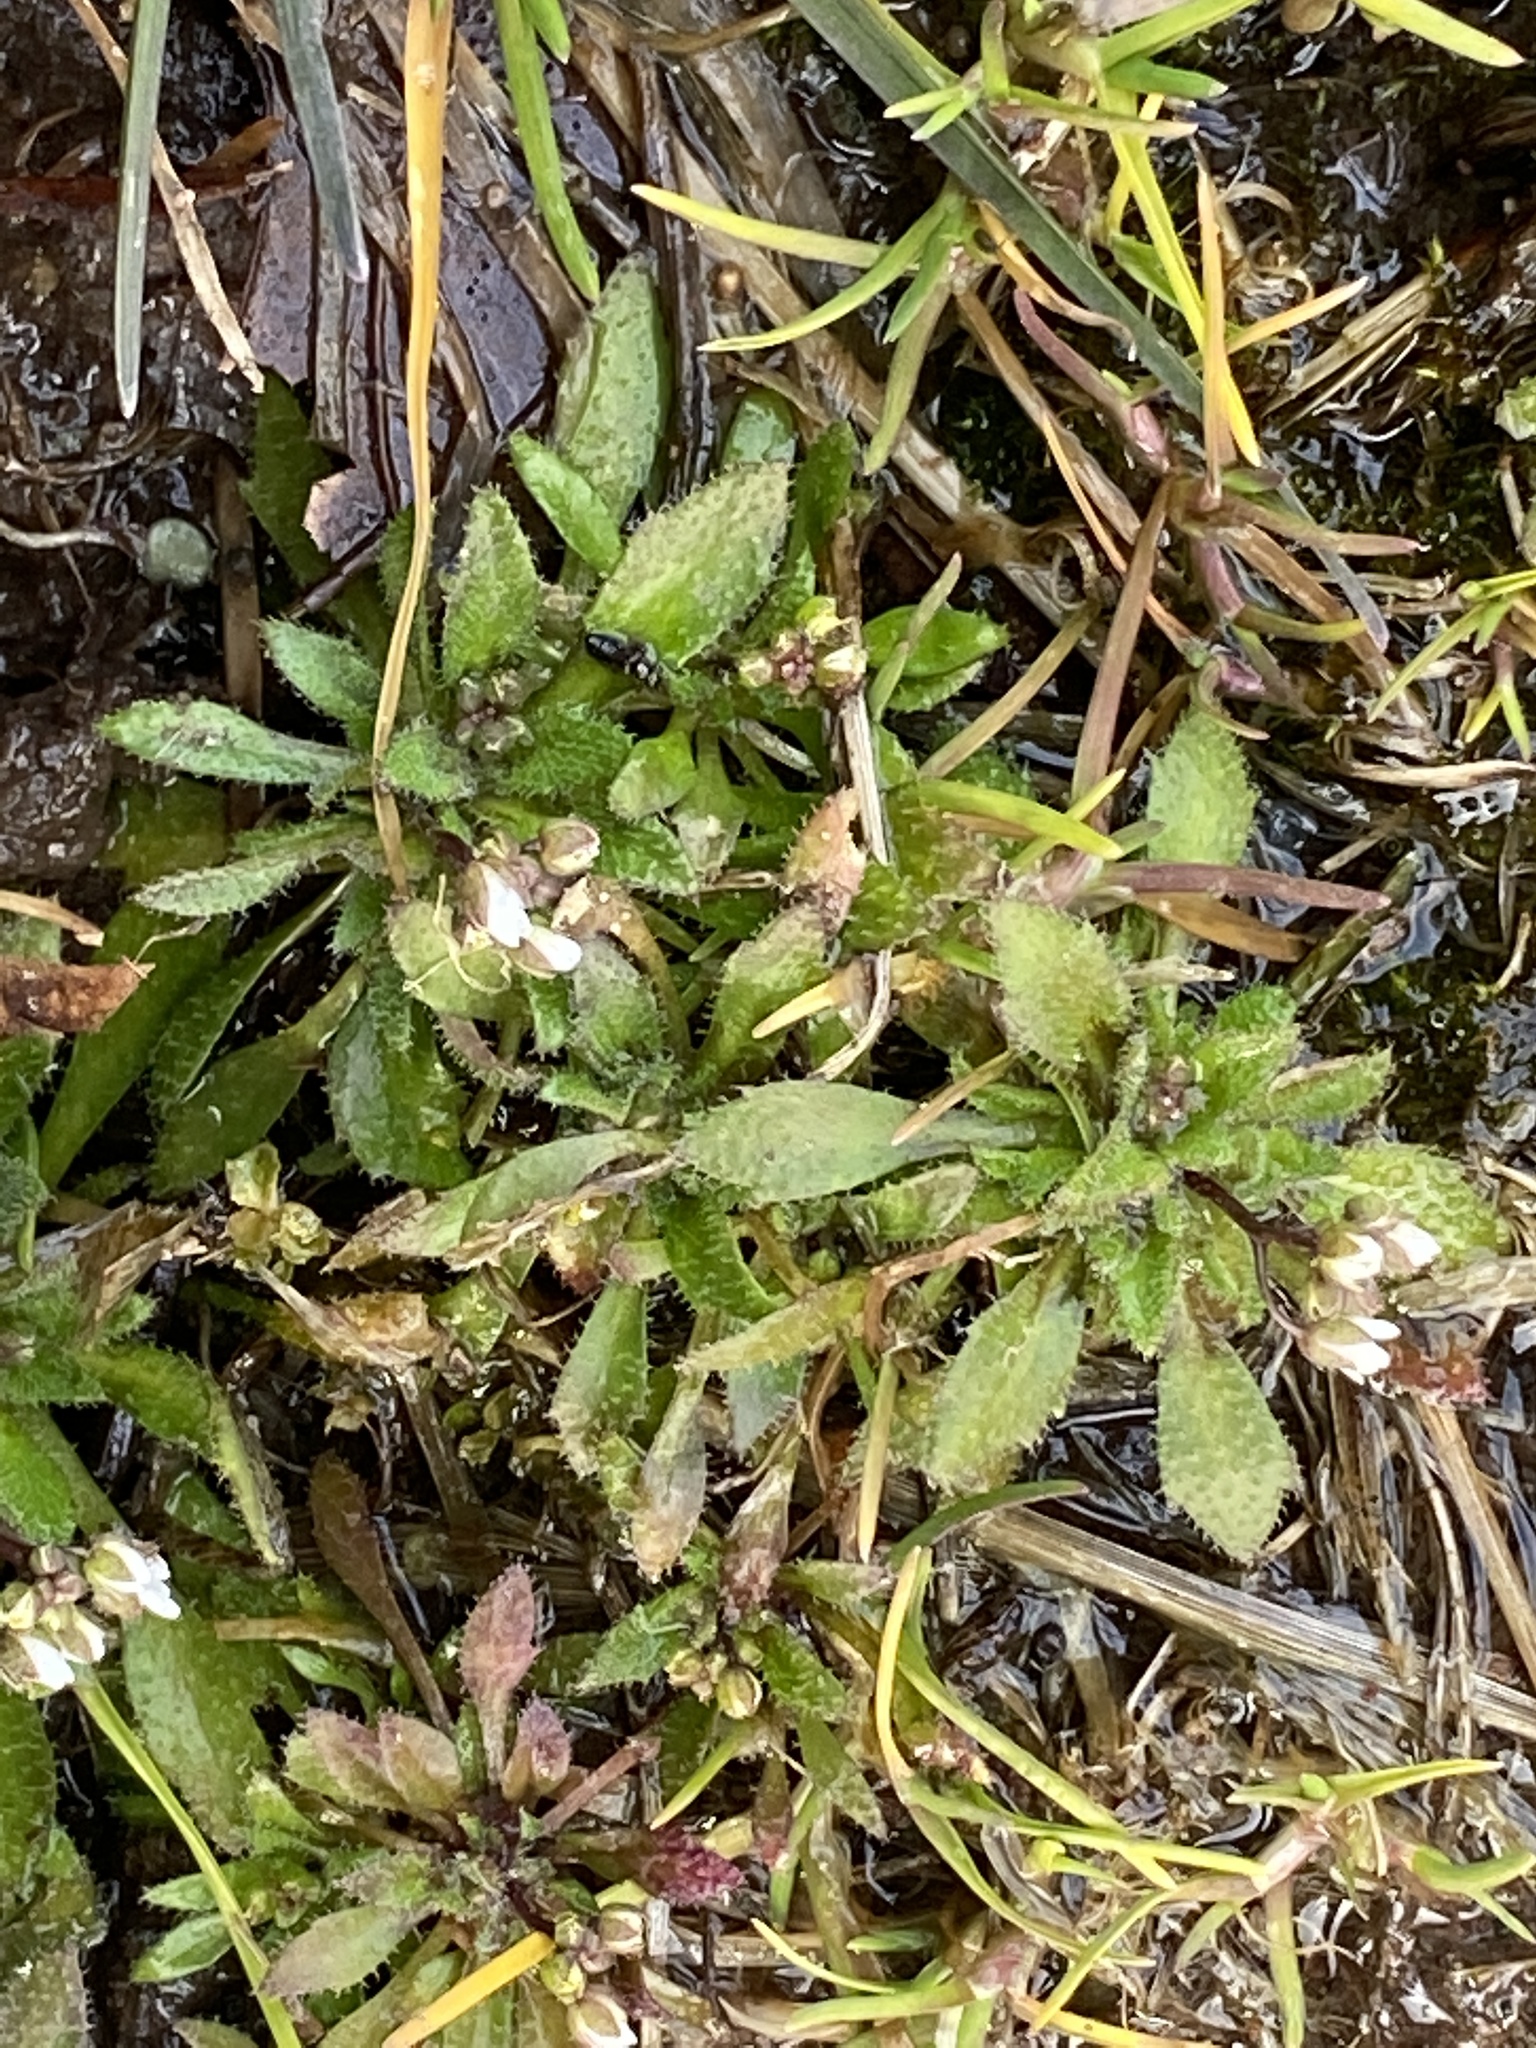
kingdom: Plantae
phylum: Tracheophyta
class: Magnoliopsida
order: Brassicales
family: Brassicaceae
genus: Draba
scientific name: Draba verna
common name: Spring draba
